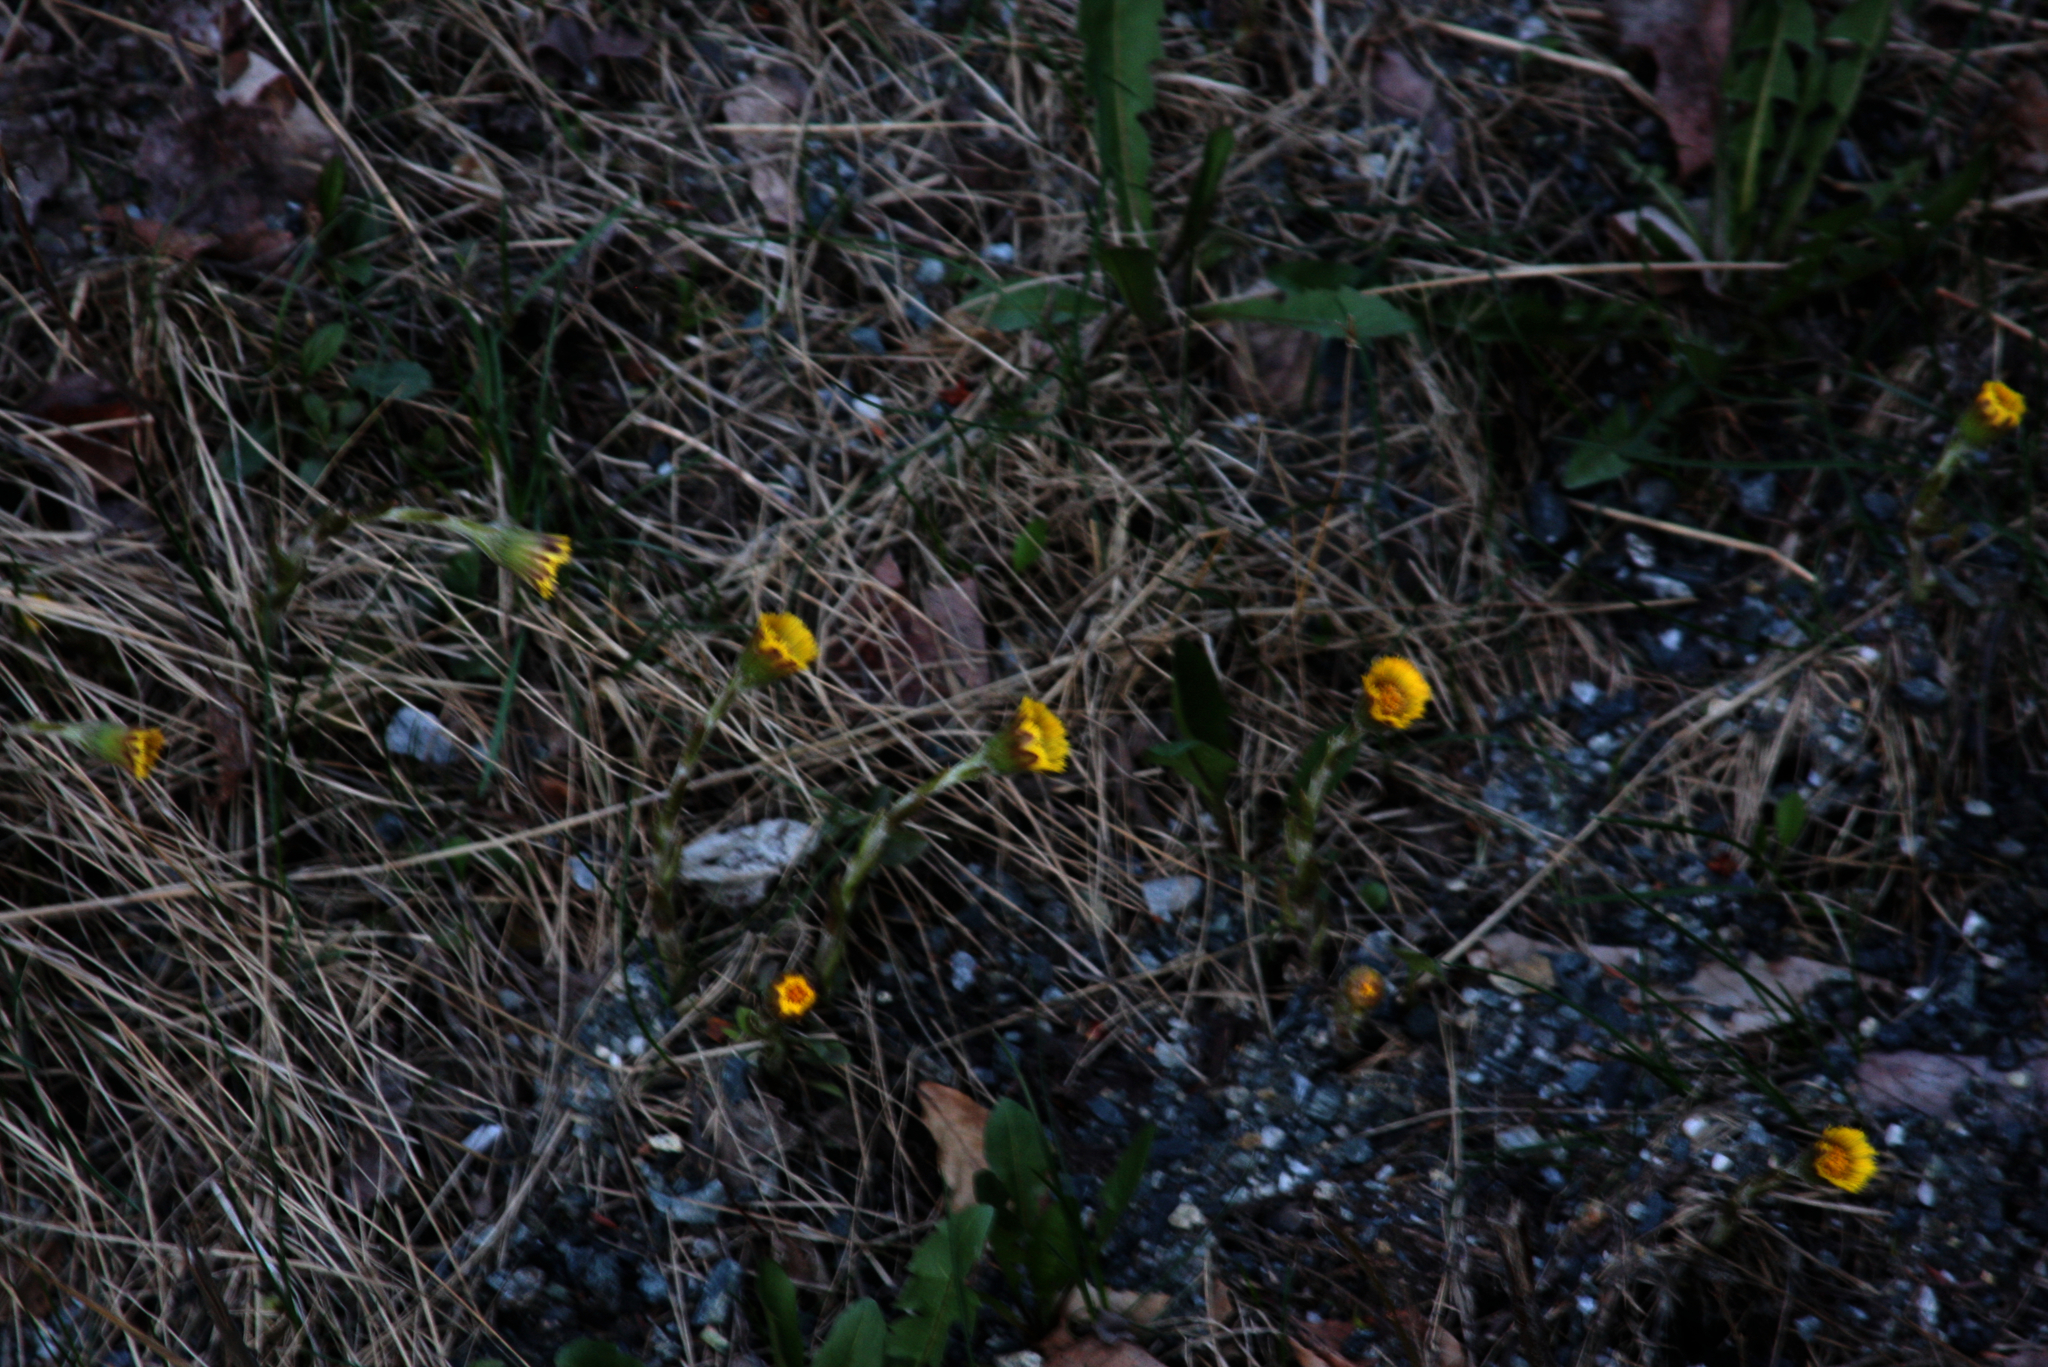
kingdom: Plantae
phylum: Tracheophyta
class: Magnoliopsida
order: Asterales
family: Asteraceae
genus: Tussilago
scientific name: Tussilago farfara
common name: Coltsfoot
